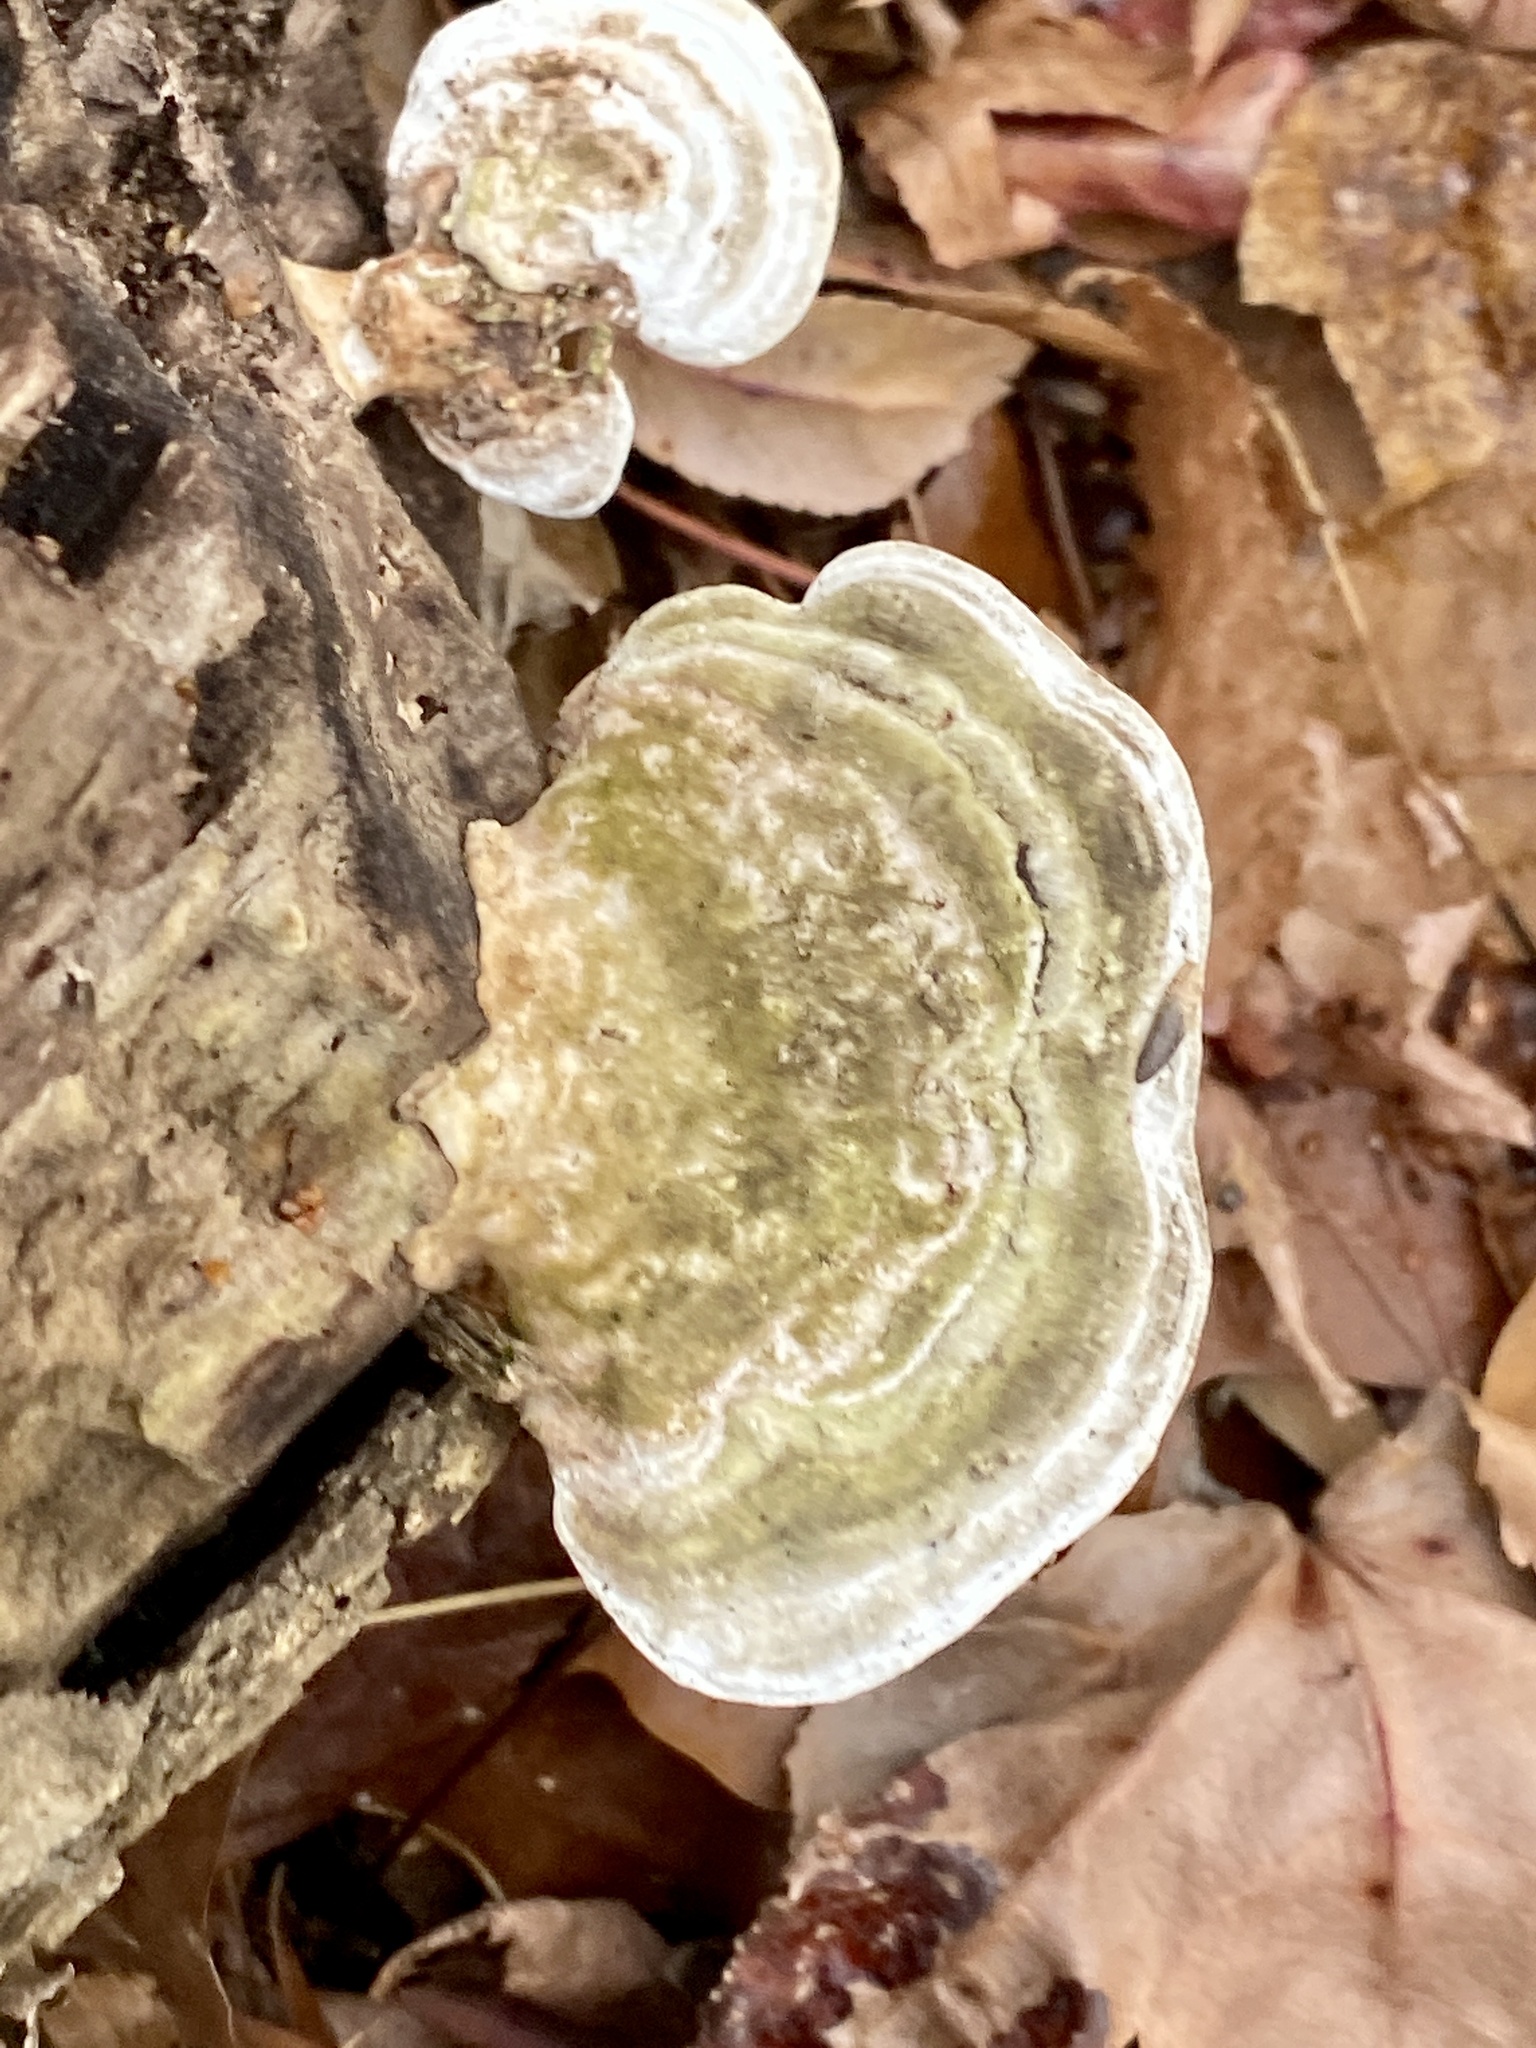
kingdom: Fungi
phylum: Basidiomycota
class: Agaricomycetes
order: Polyporales
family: Polyporaceae
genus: Trametes
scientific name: Trametes gibbosa
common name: Lumpy bracket
